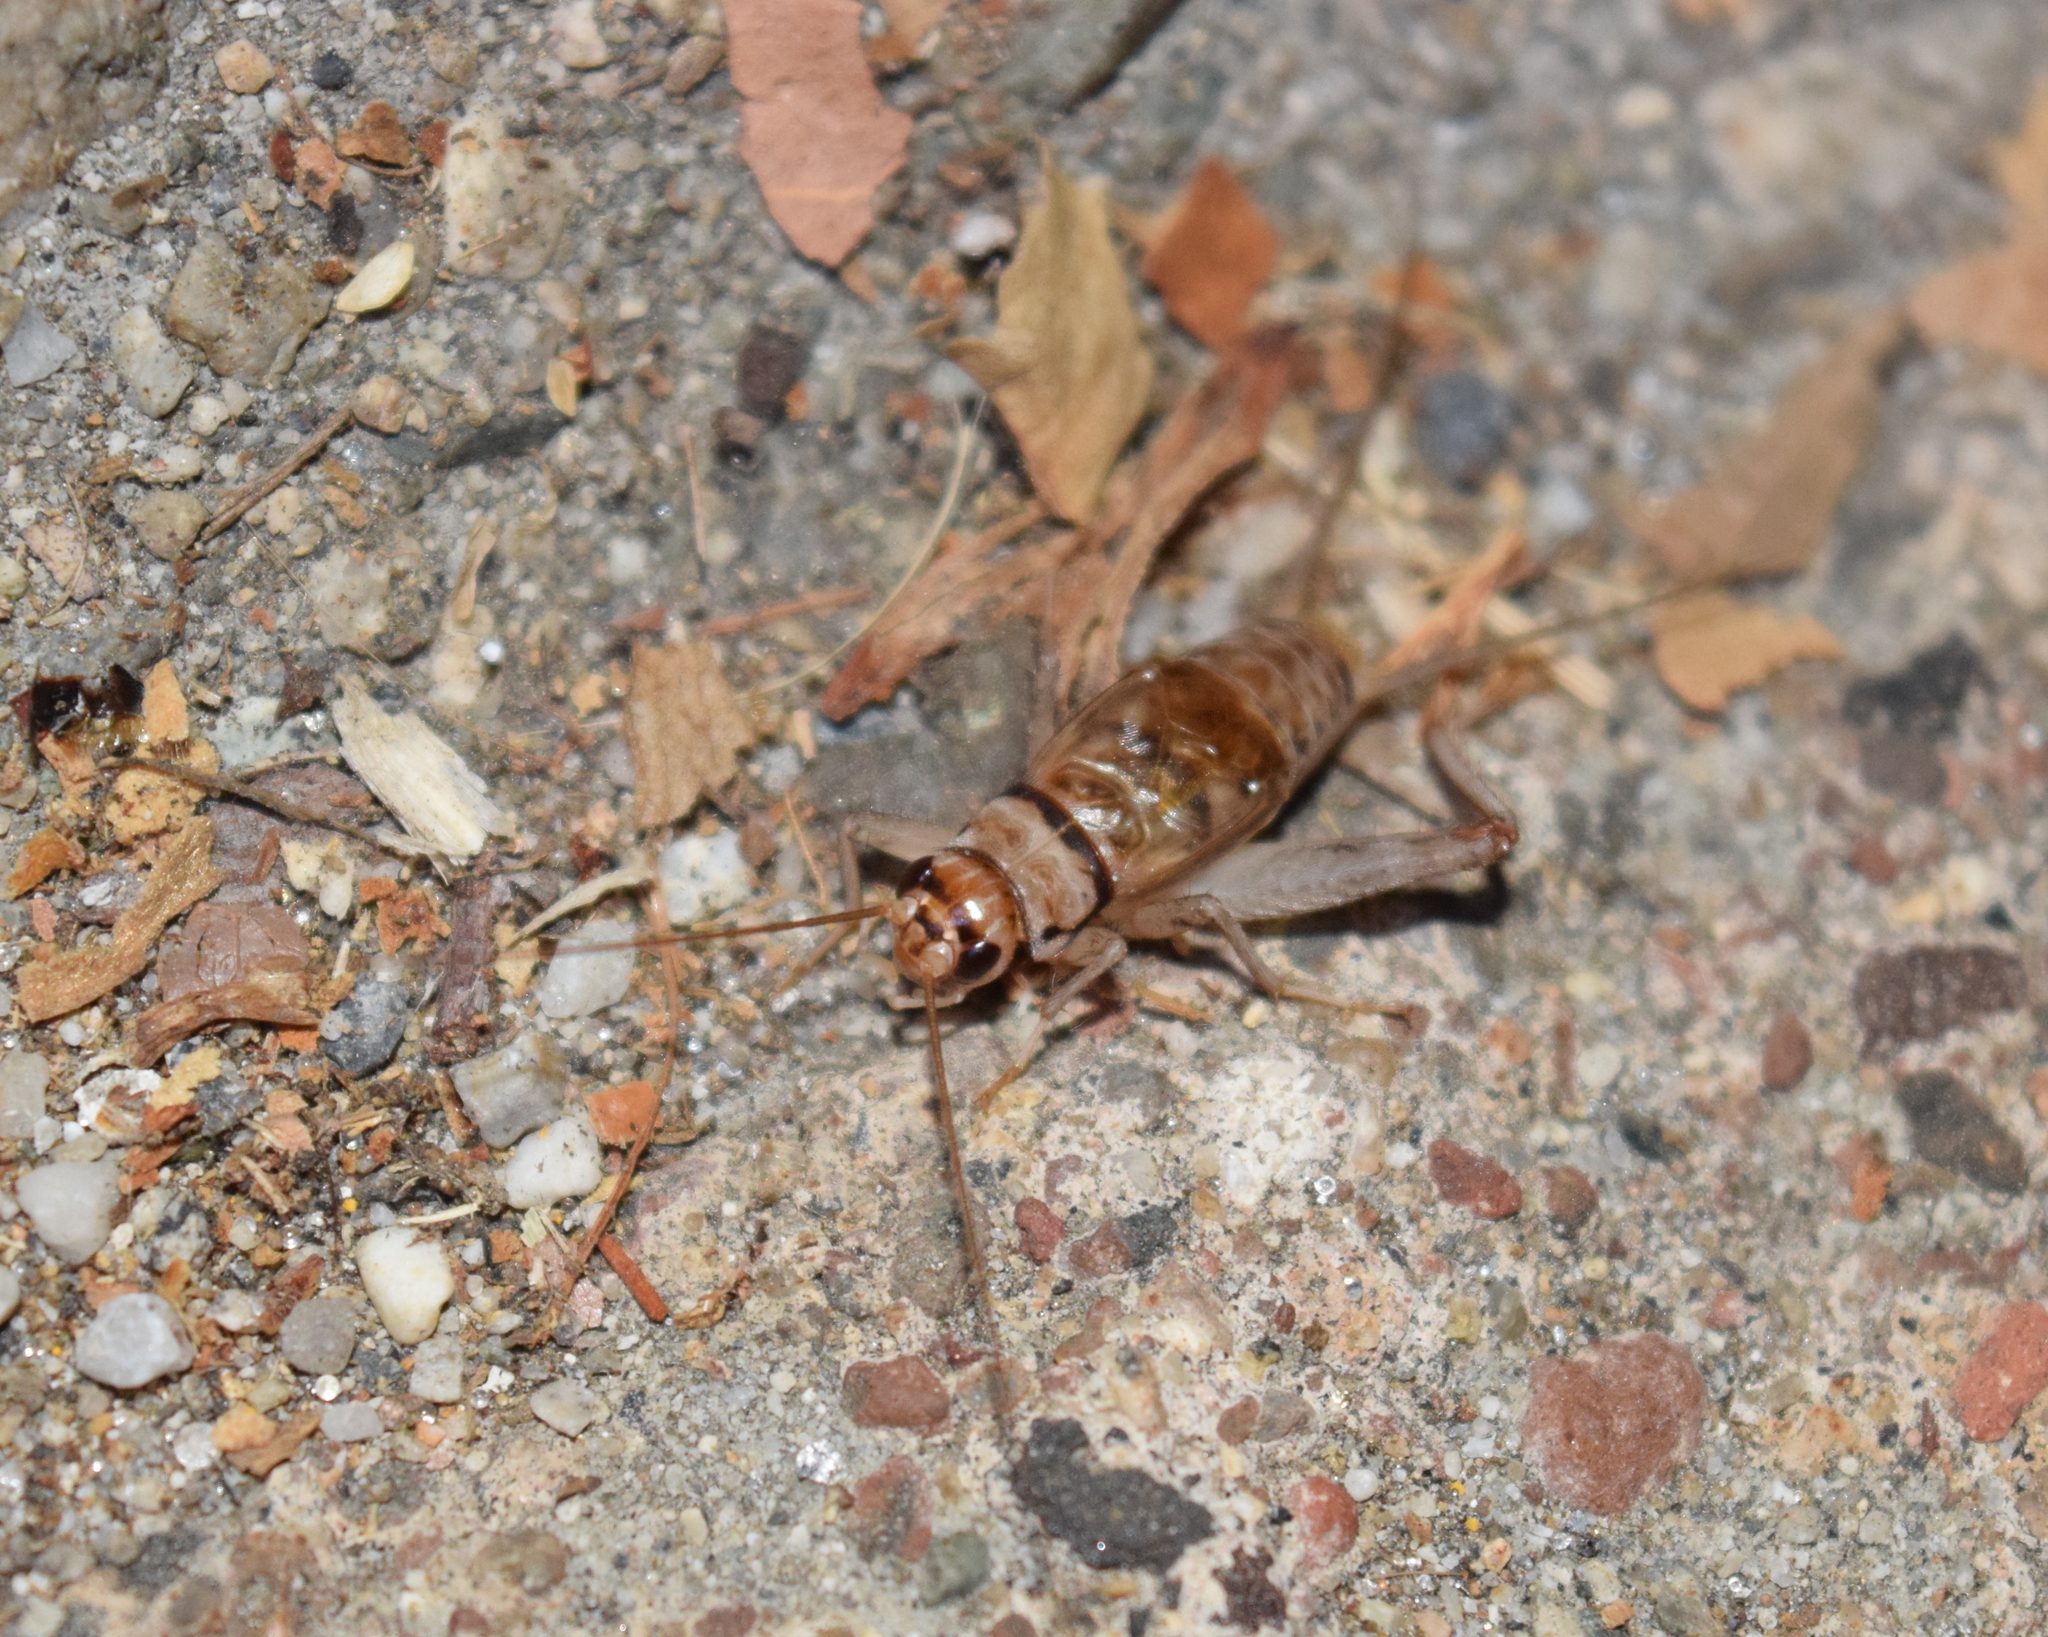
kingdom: Animalia
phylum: Arthropoda
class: Insecta
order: Orthoptera
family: Gryllidae
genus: Gryllodes
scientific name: Gryllodes sigillatus
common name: Tropical house cricket
